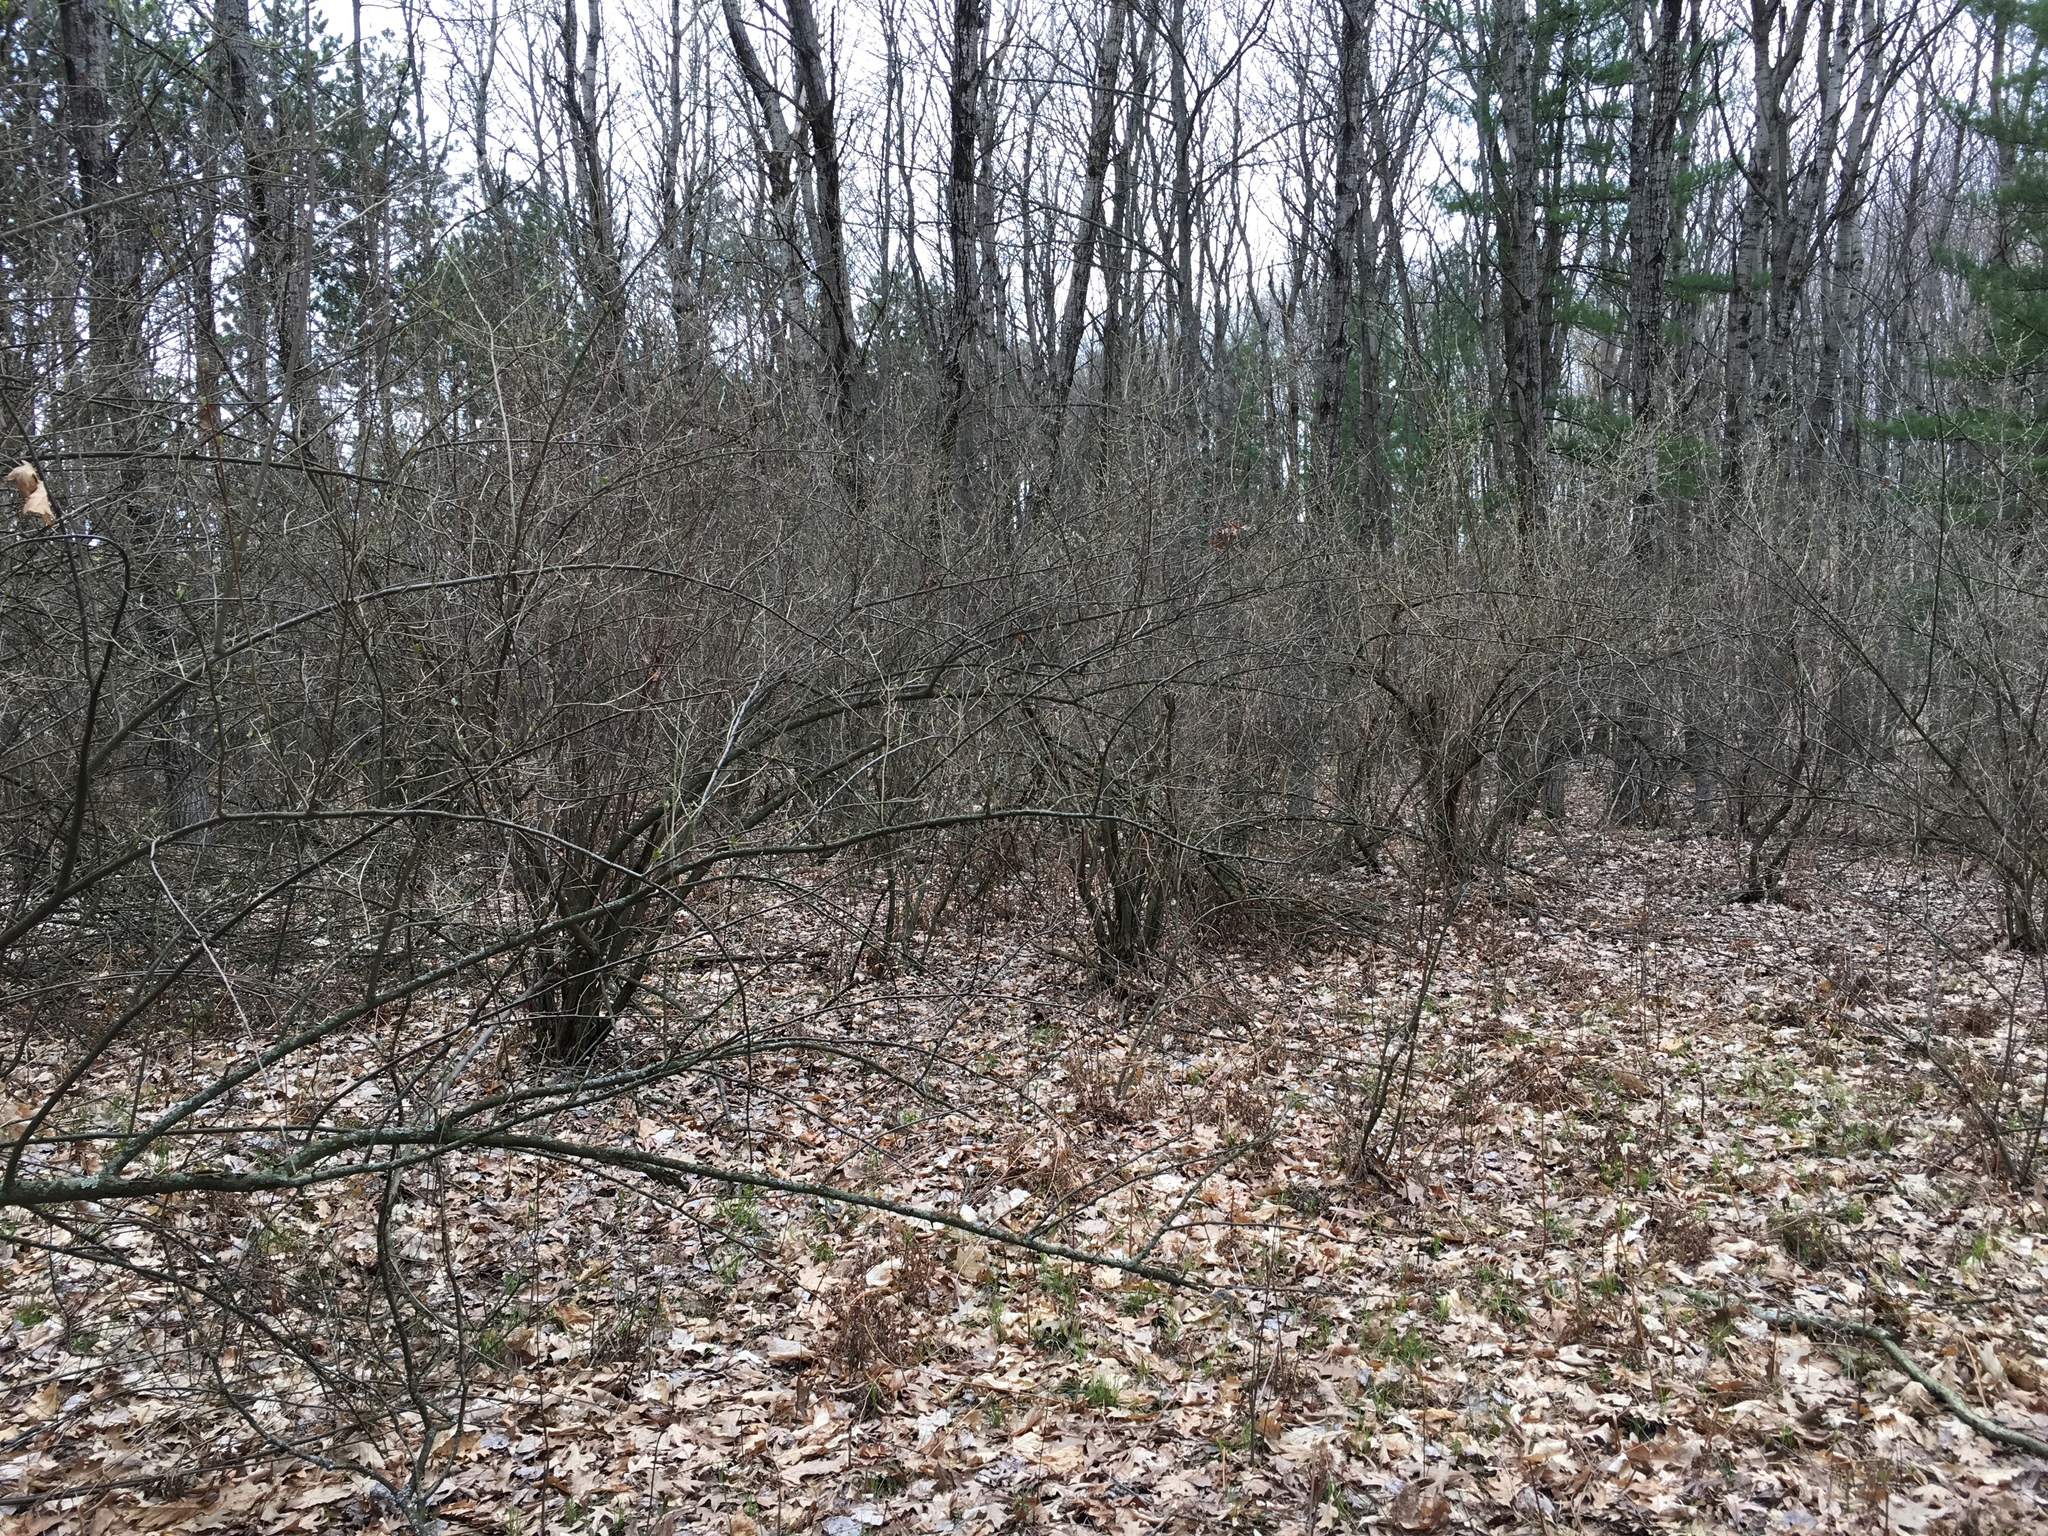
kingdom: Plantae
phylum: Tracheophyta
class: Magnoliopsida
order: Rosales
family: Elaeagnaceae
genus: Elaeagnus
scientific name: Elaeagnus umbellata
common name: Autumn olive
